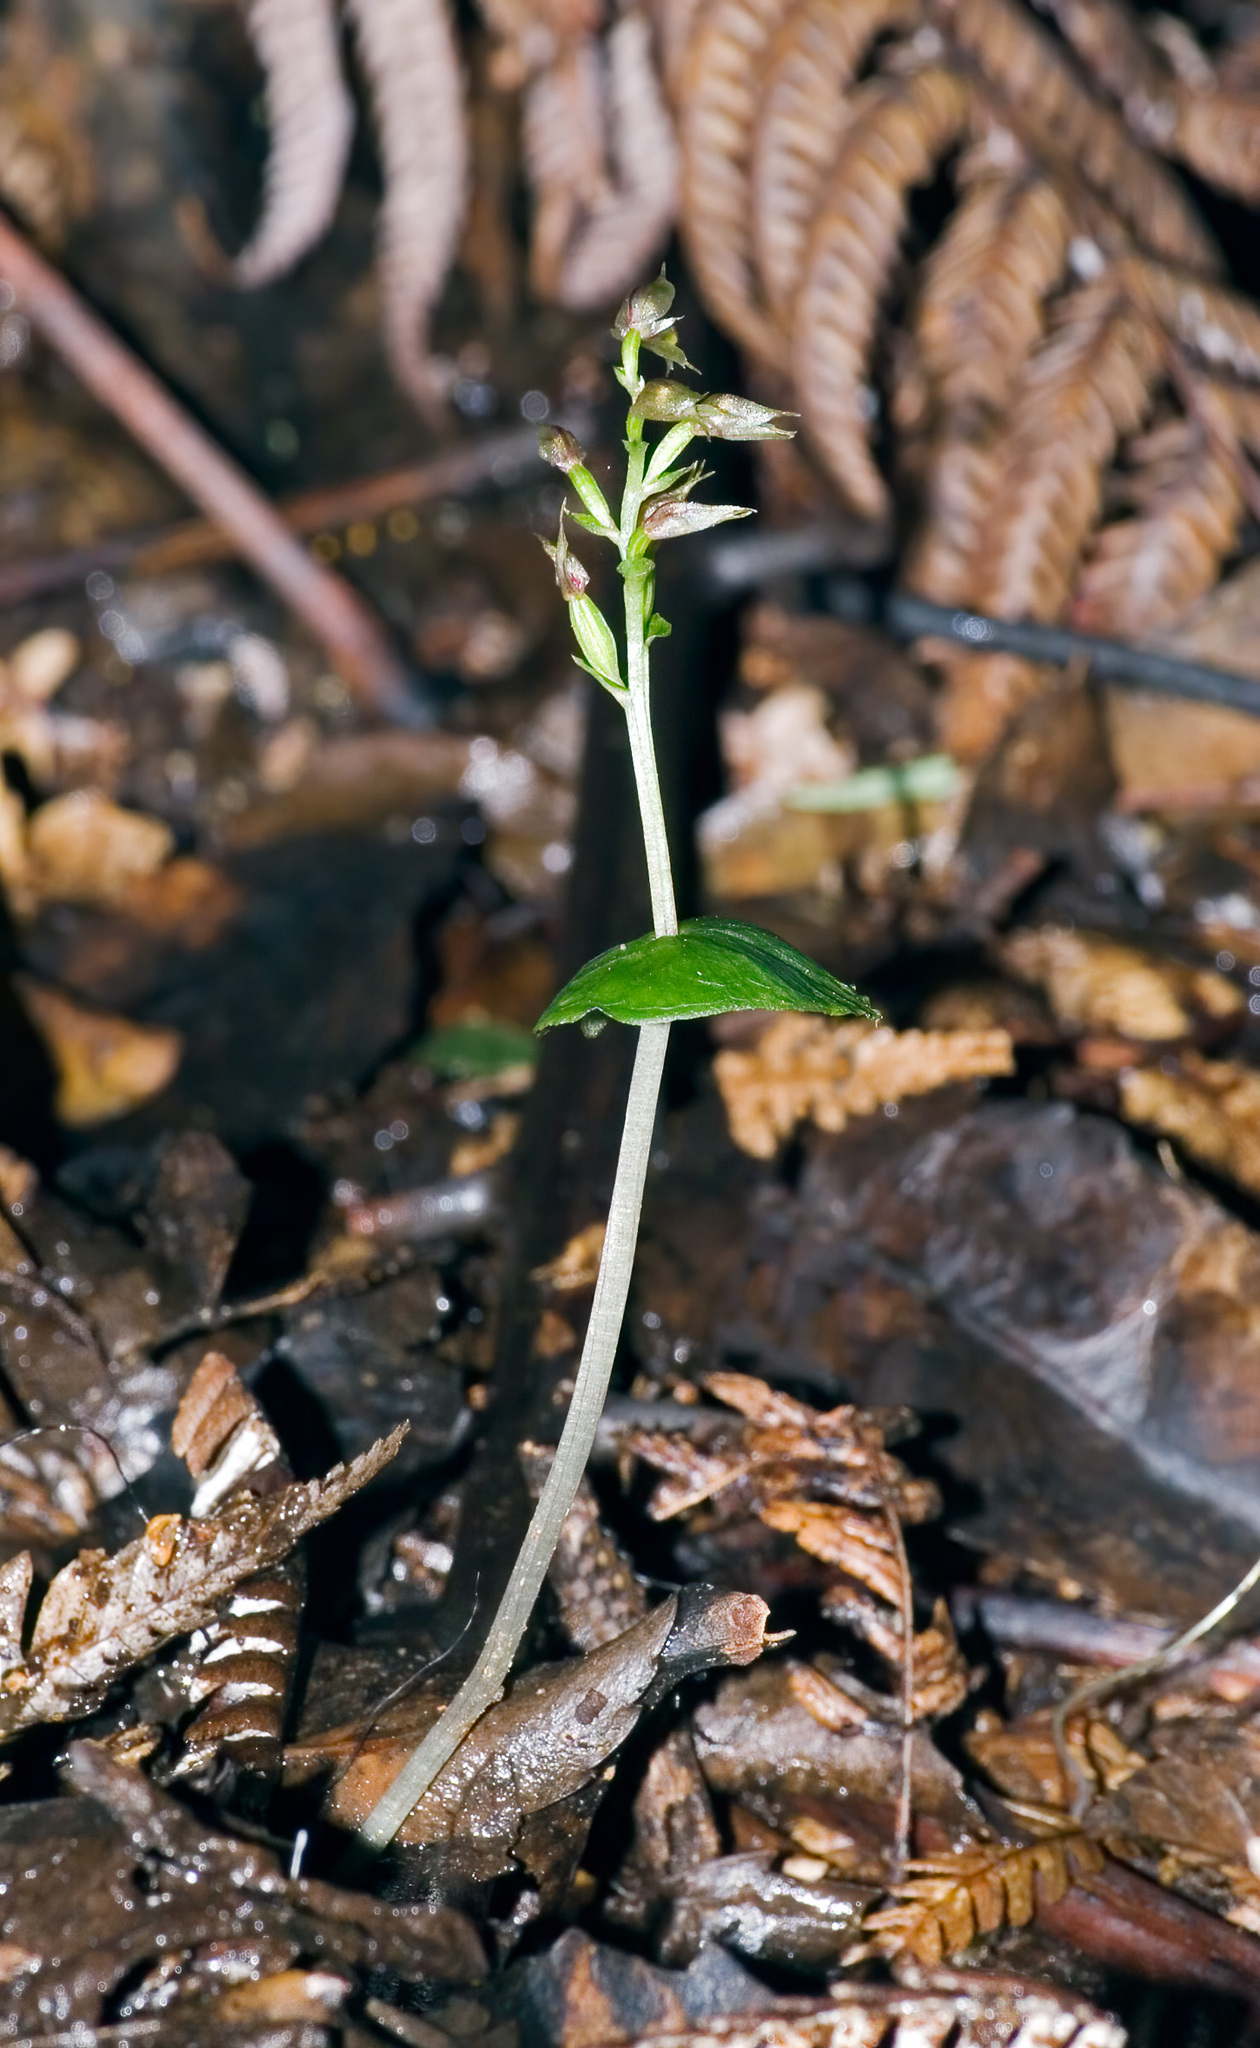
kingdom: Plantae
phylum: Tracheophyta
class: Liliopsida
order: Asparagales
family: Orchidaceae
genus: Acianthus
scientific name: Acianthus sinclairii
